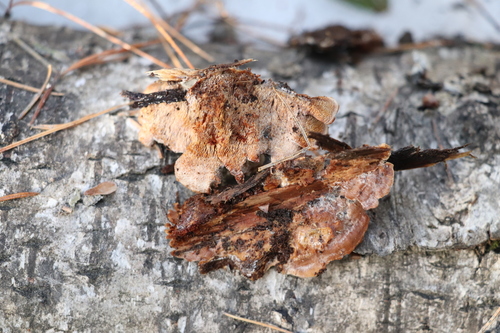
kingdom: Fungi
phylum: Basidiomycota
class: Agaricomycetes
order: Polyporales
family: Steccherinaceae
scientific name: Steccherinaceae
